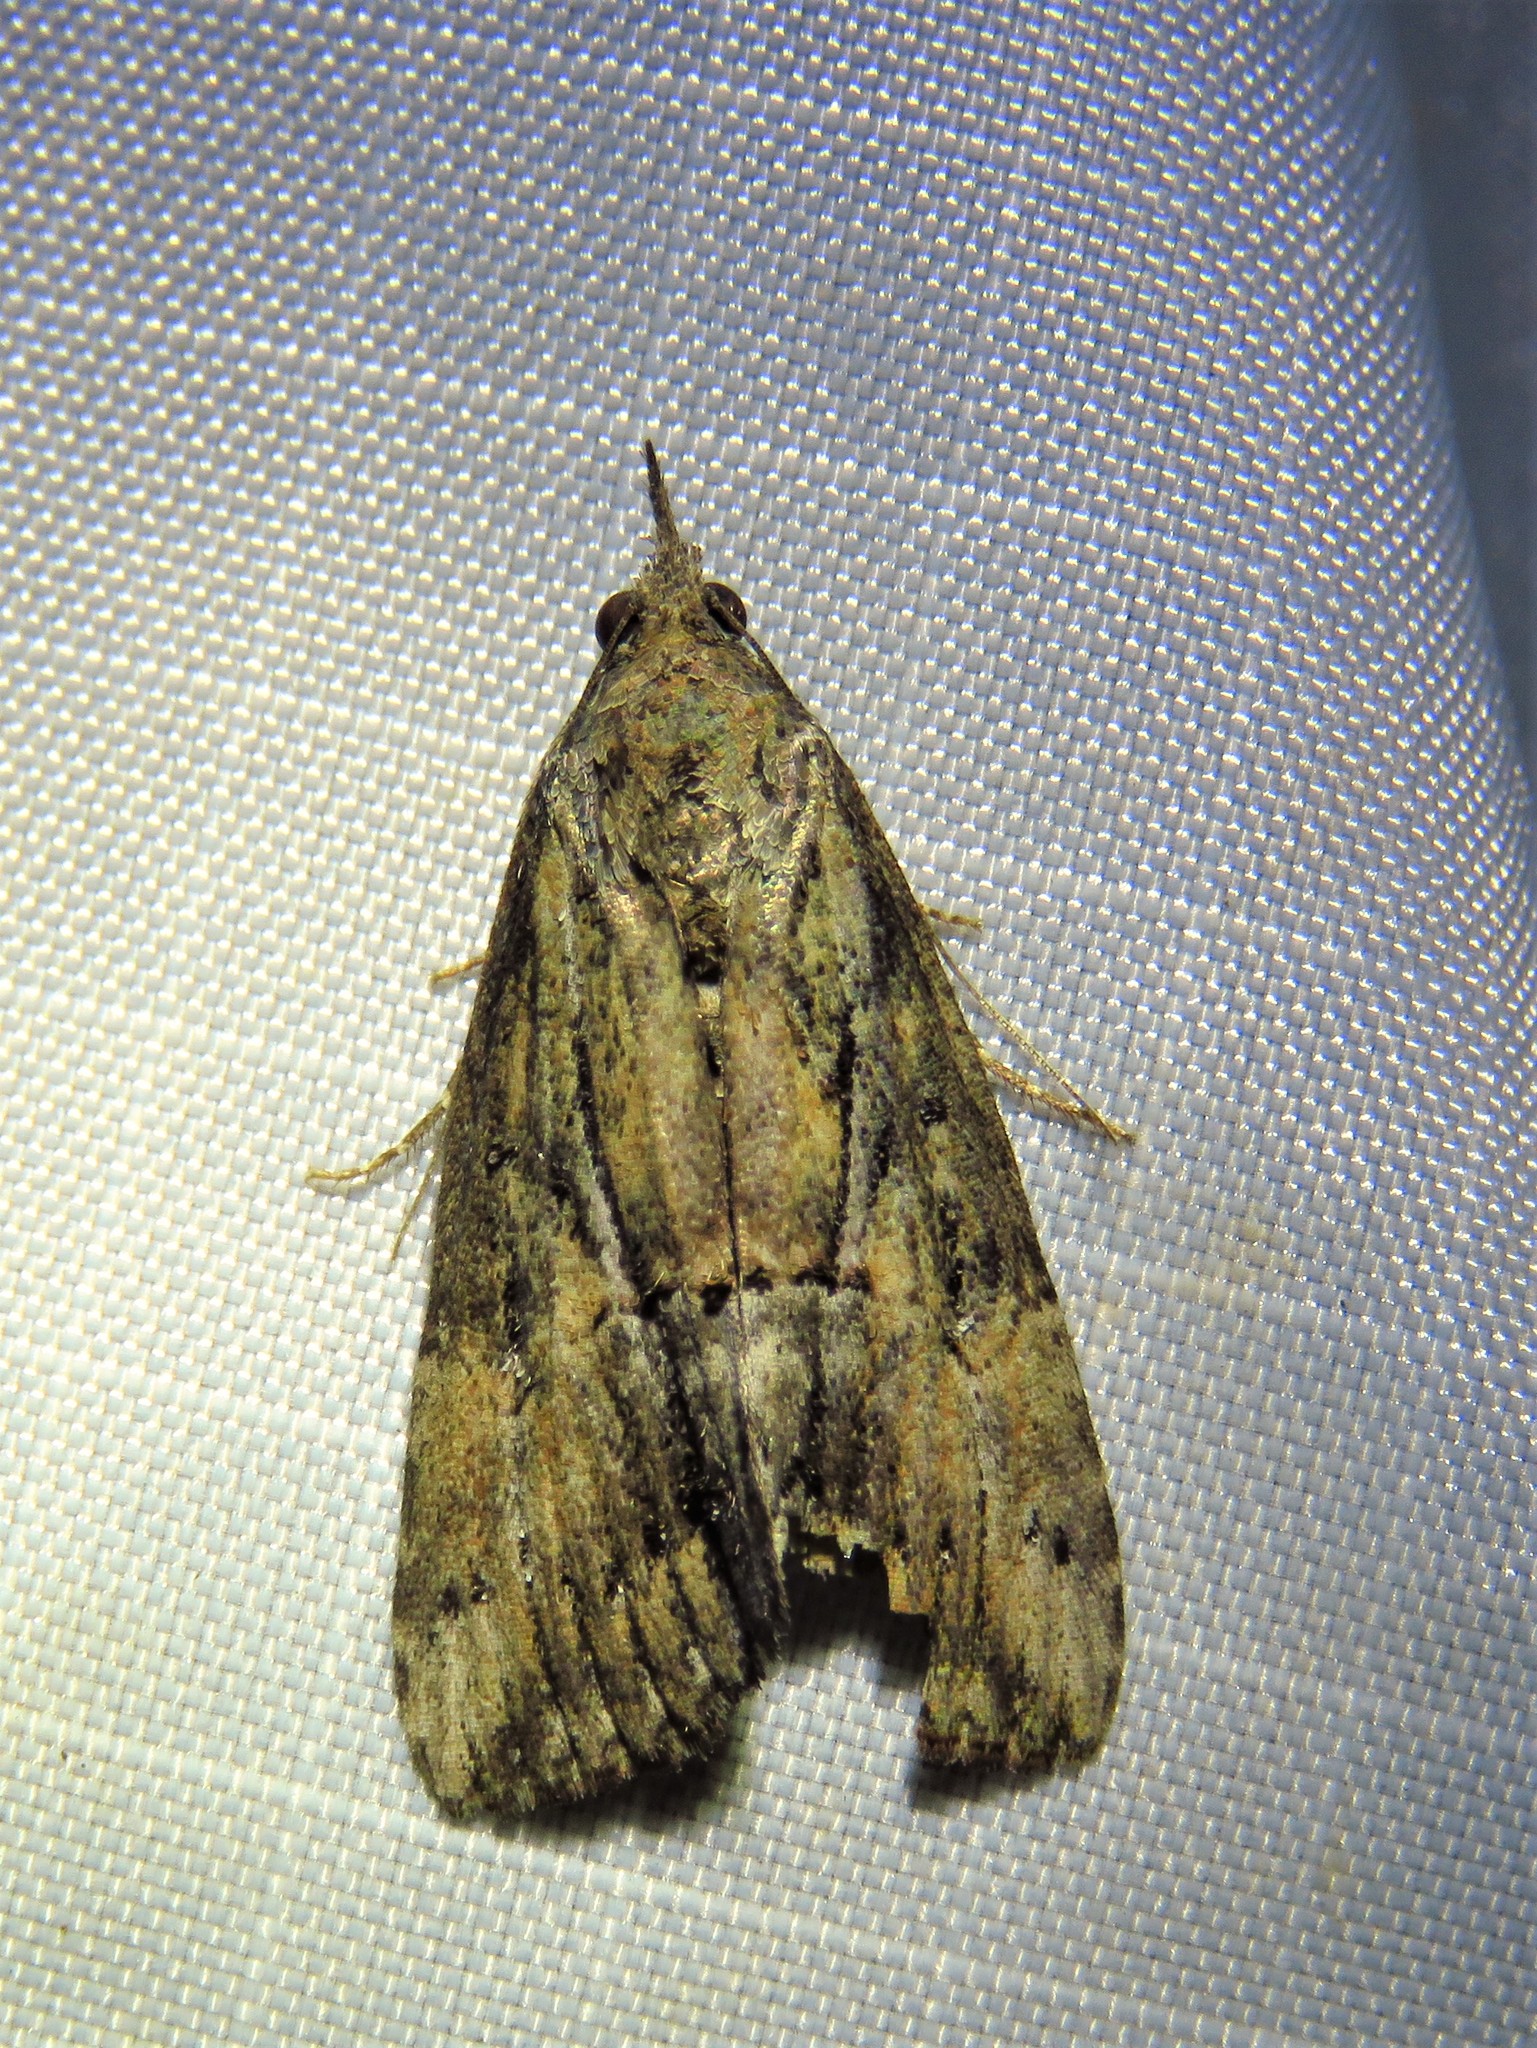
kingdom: Animalia
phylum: Arthropoda
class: Insecta
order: Lepidoptera
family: Erebidae
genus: Hypena
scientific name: Hypena scabra
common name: Green cloverworm
